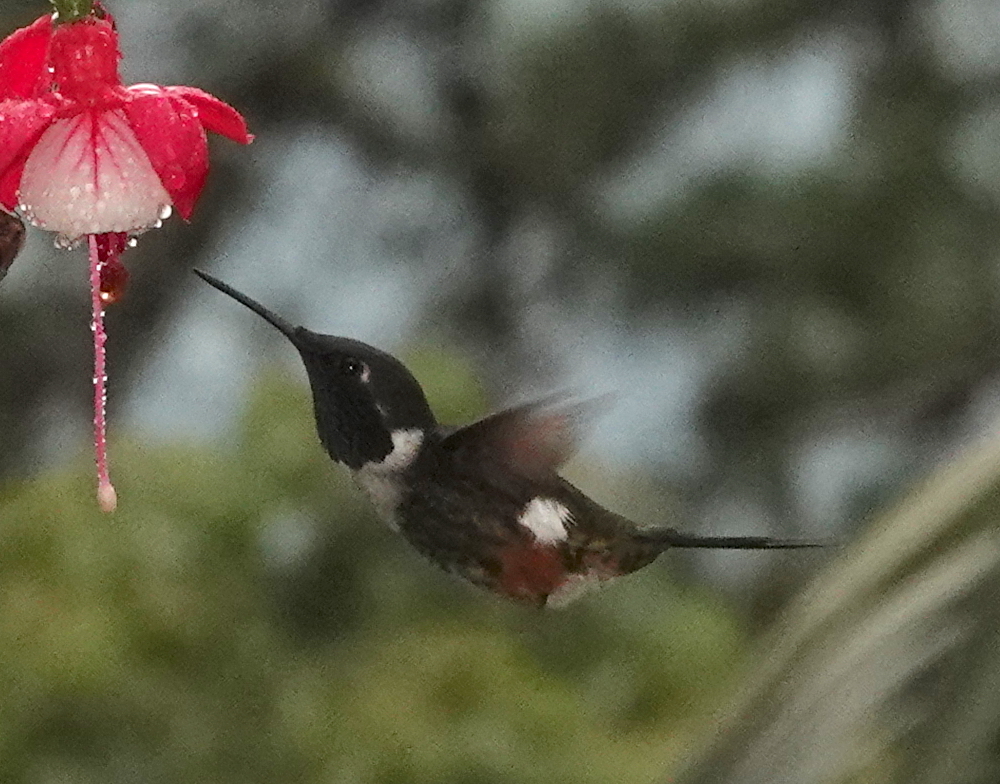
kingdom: Animalia
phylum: Chordata
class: Aves
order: Apodiformes
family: Trochilidae
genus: Calliphlox
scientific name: Calliphlox mitchellii
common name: Purple-throated woodstar
